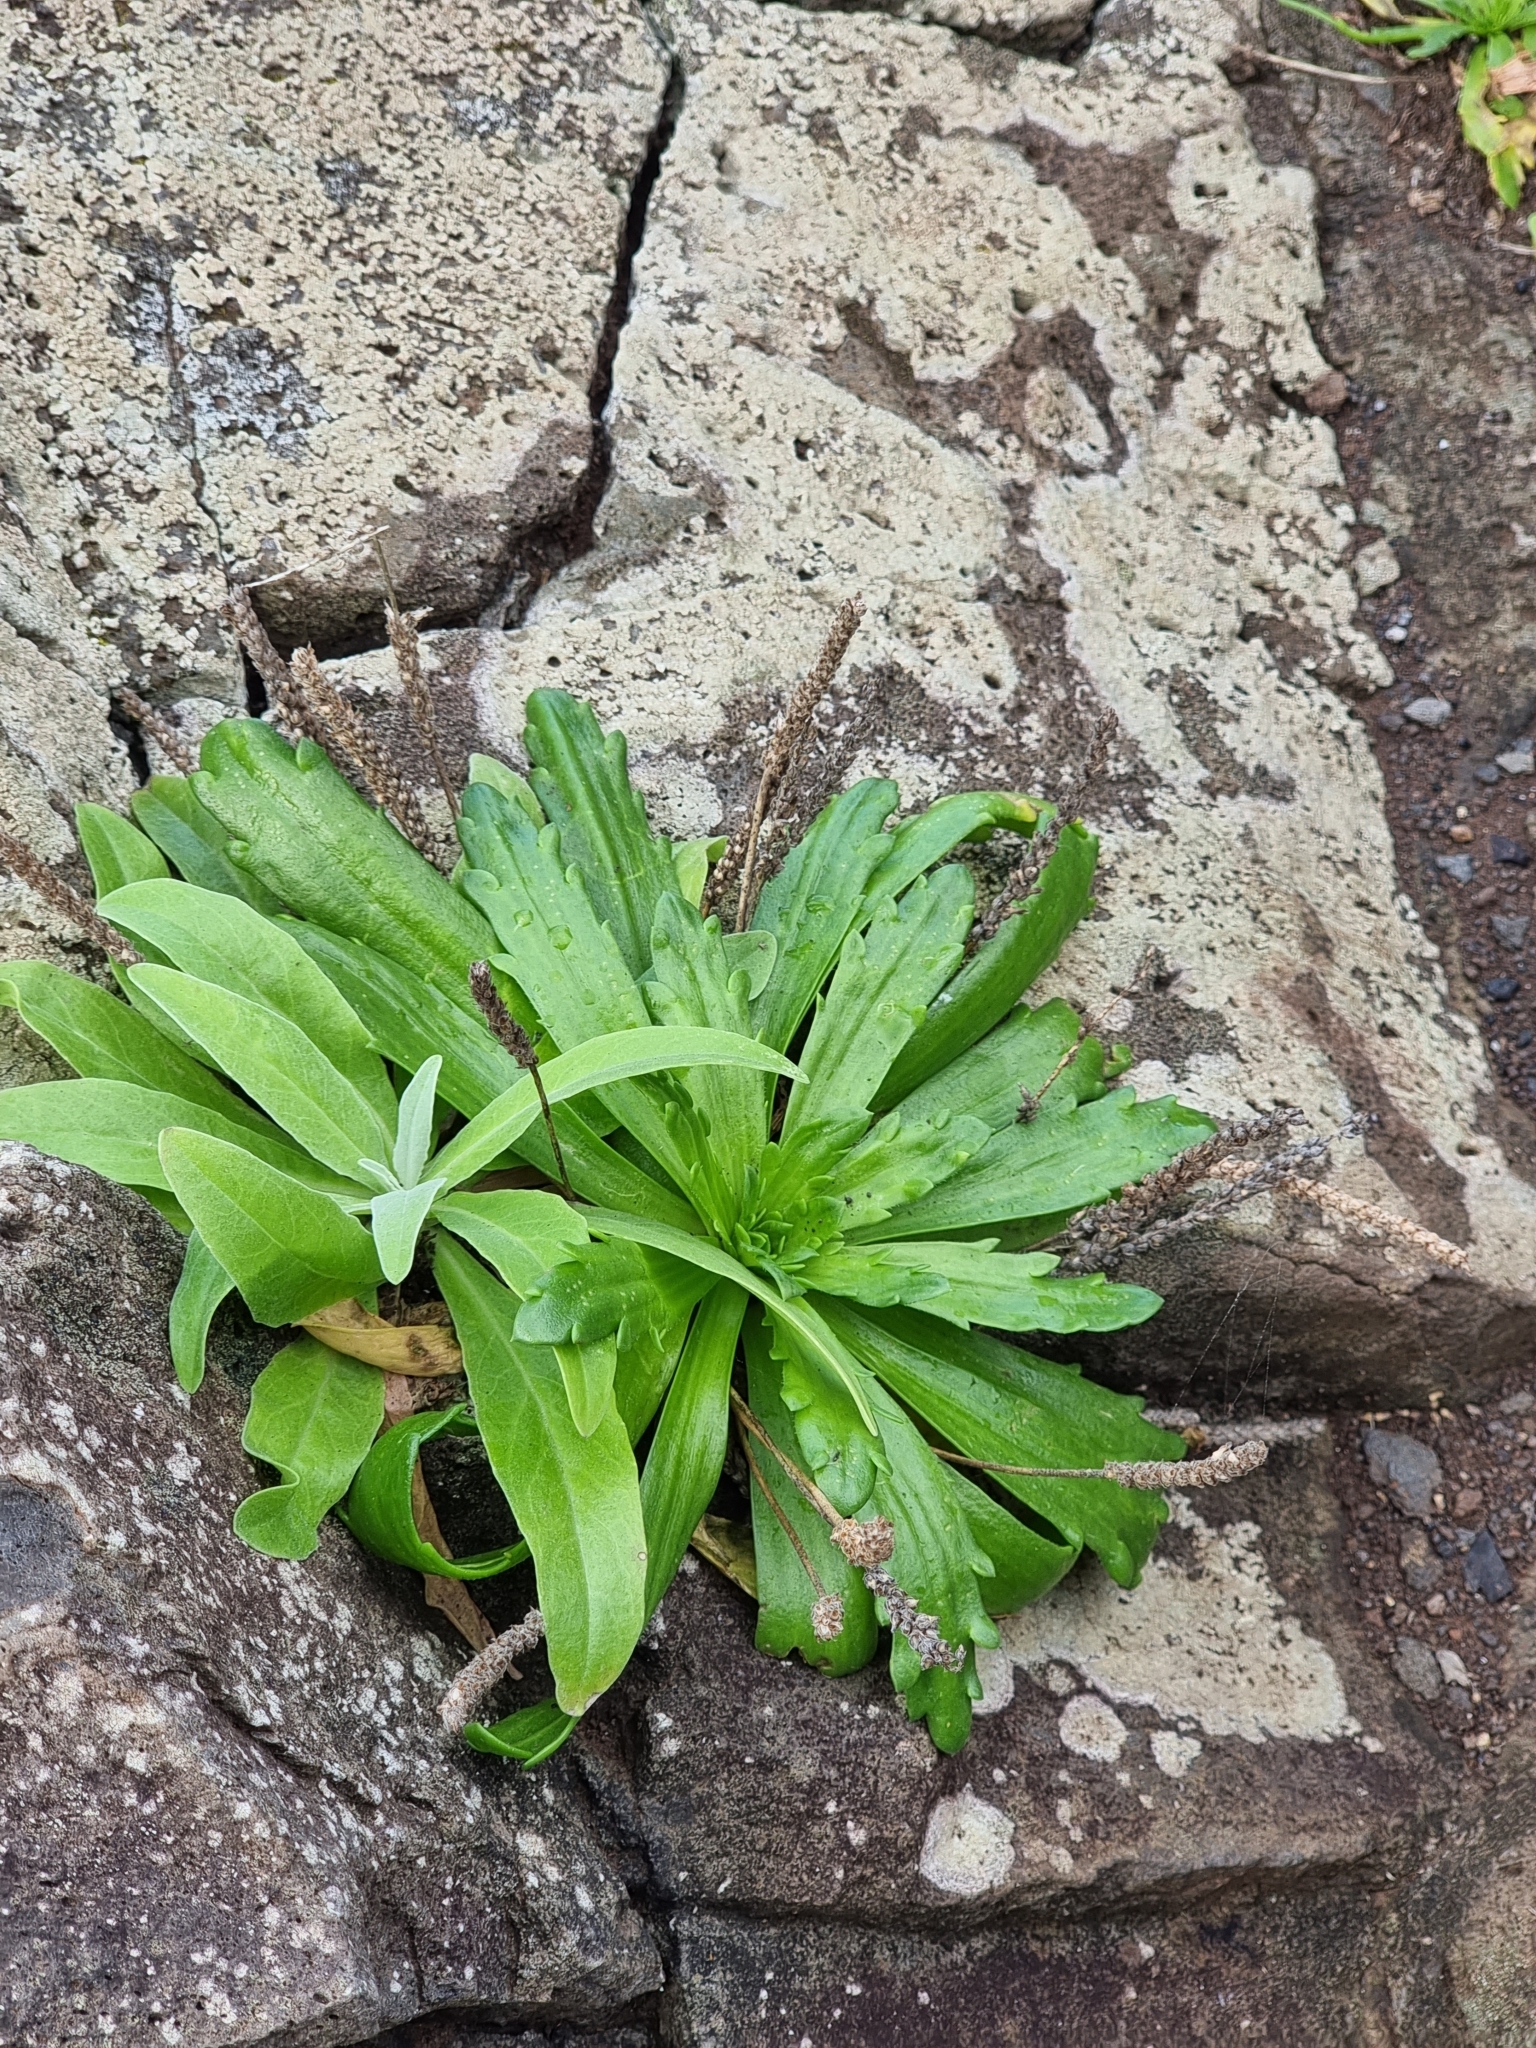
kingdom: Plantae
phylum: Tracheophyta
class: Magnoliopsida
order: Lamiales
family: Plantaginaceae
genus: Plantago
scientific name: Plantago coronopus
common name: Buck's-horn plantain
